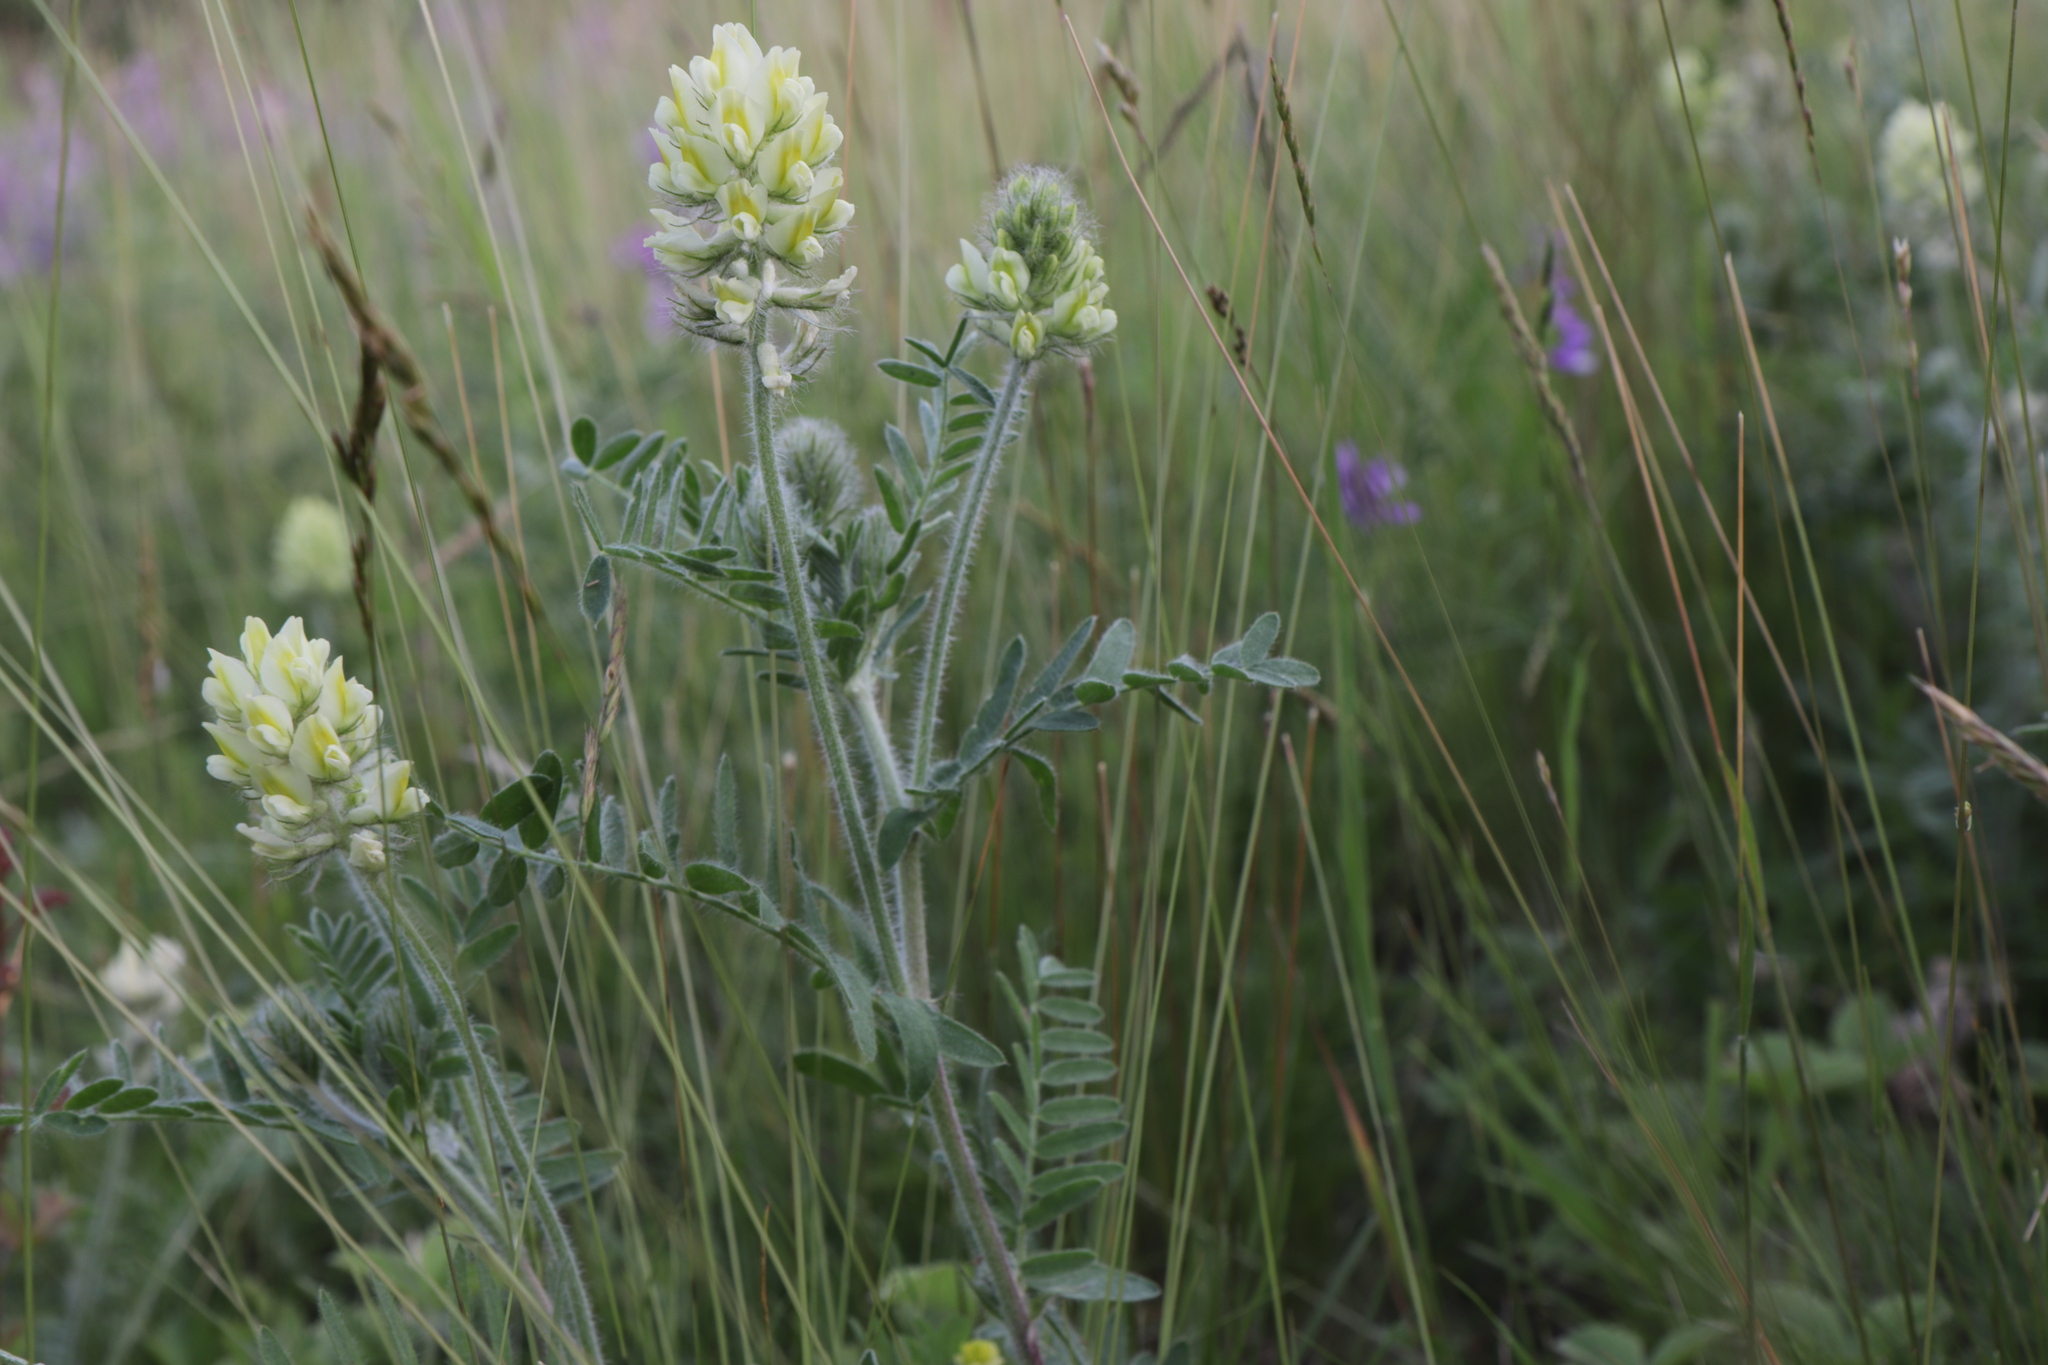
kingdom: Plantae
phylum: Tracheophyta
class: Magnoliopsida
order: Fabales
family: Fabaceae
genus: Oxytropis
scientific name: Oxytropis pilosa
